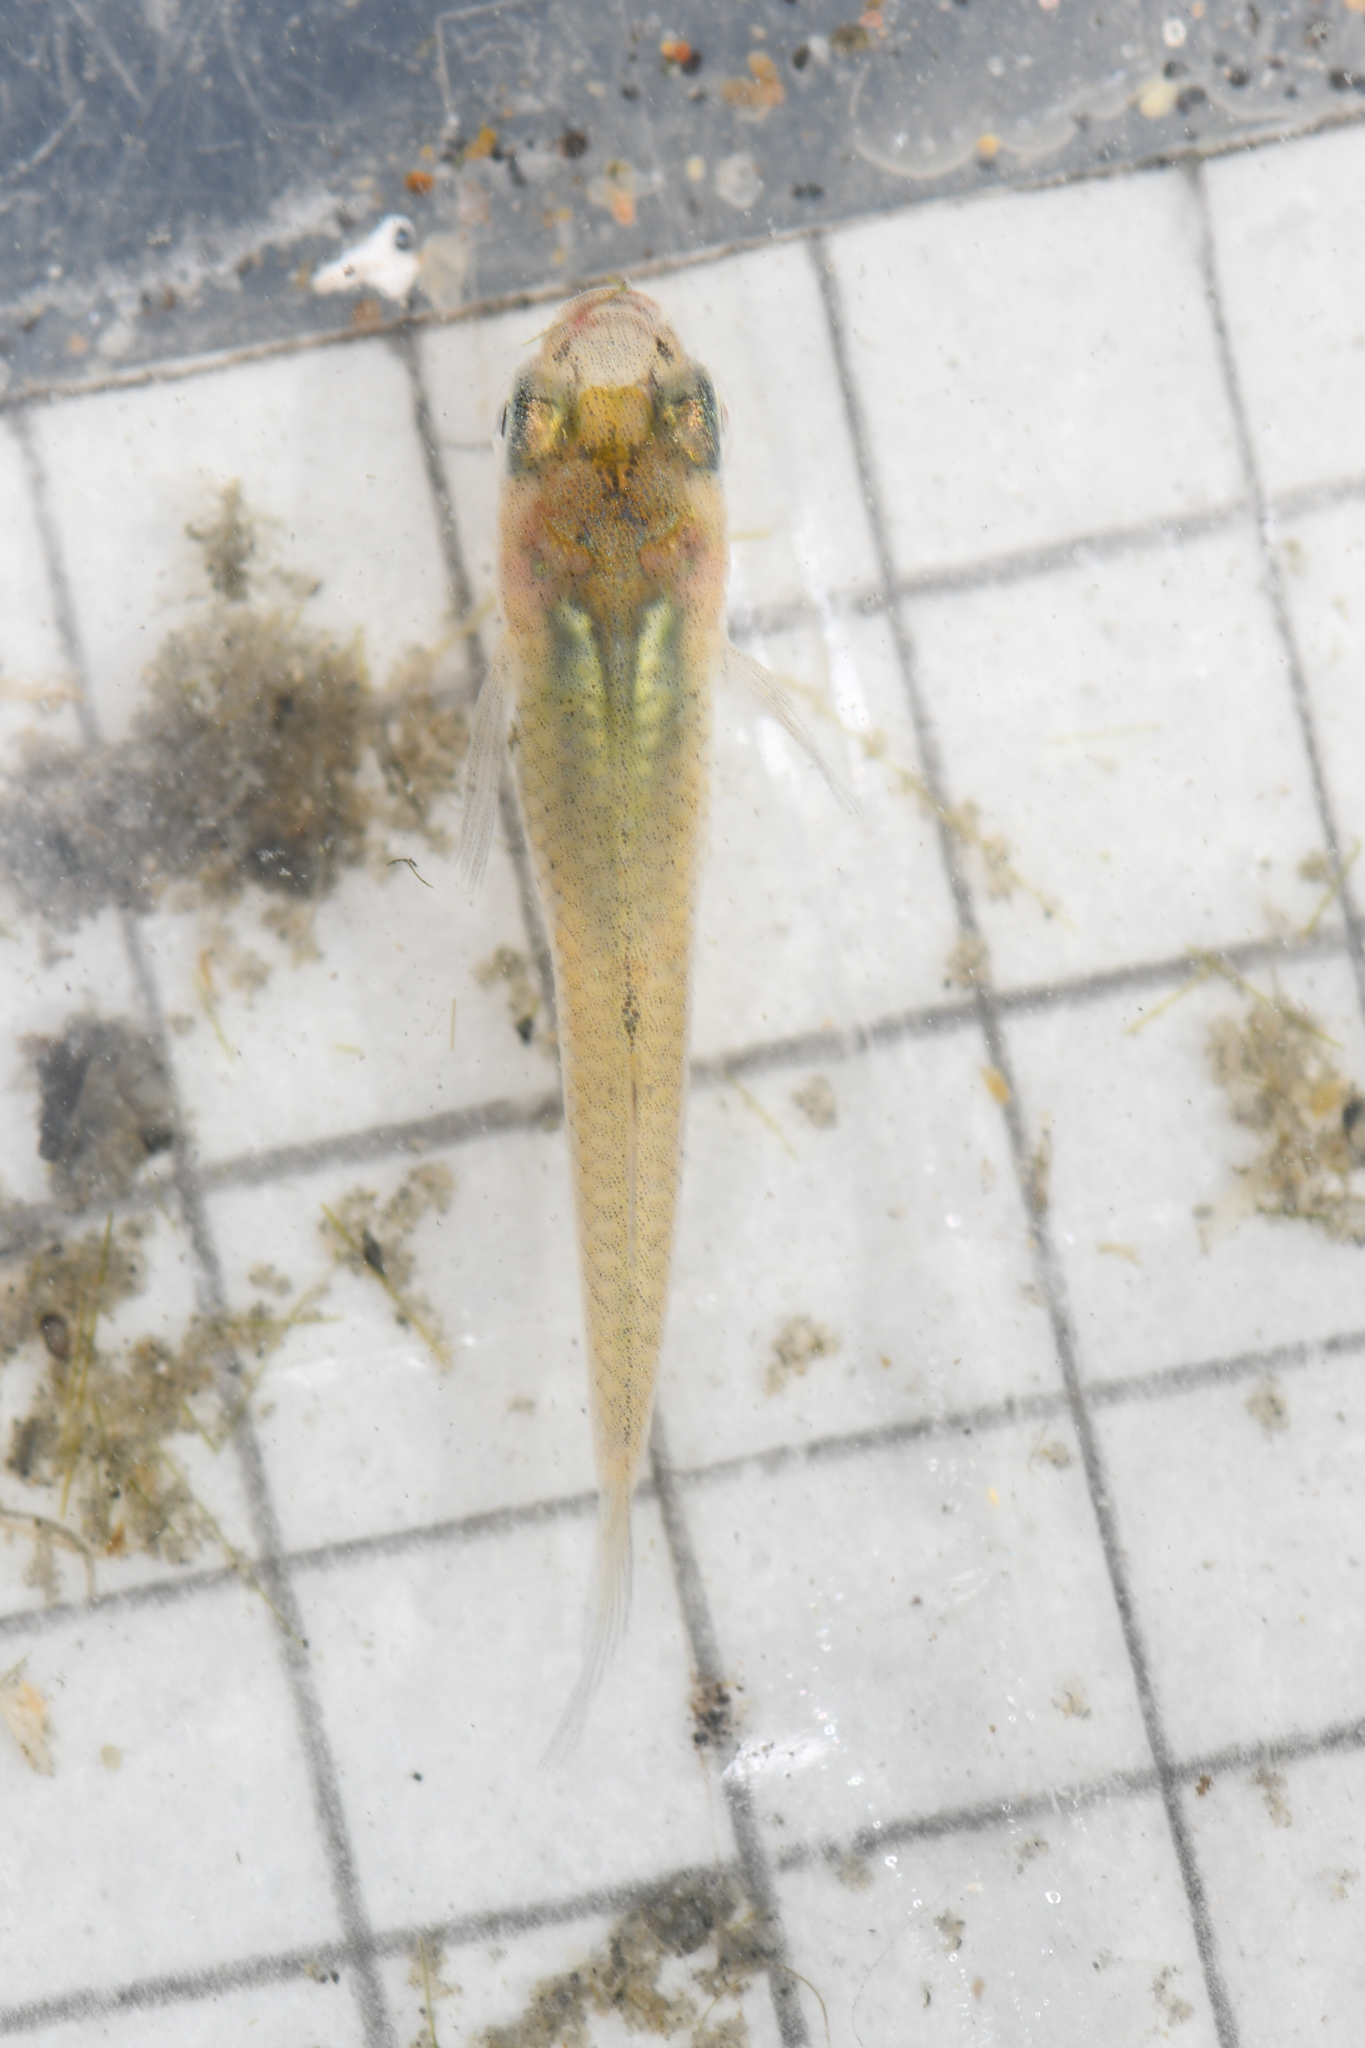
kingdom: Animalia
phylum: Chordata
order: Cyprinodontiformes
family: Poeciliidae
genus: Gambusia
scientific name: Gambusia affinis
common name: Mosquitofish
